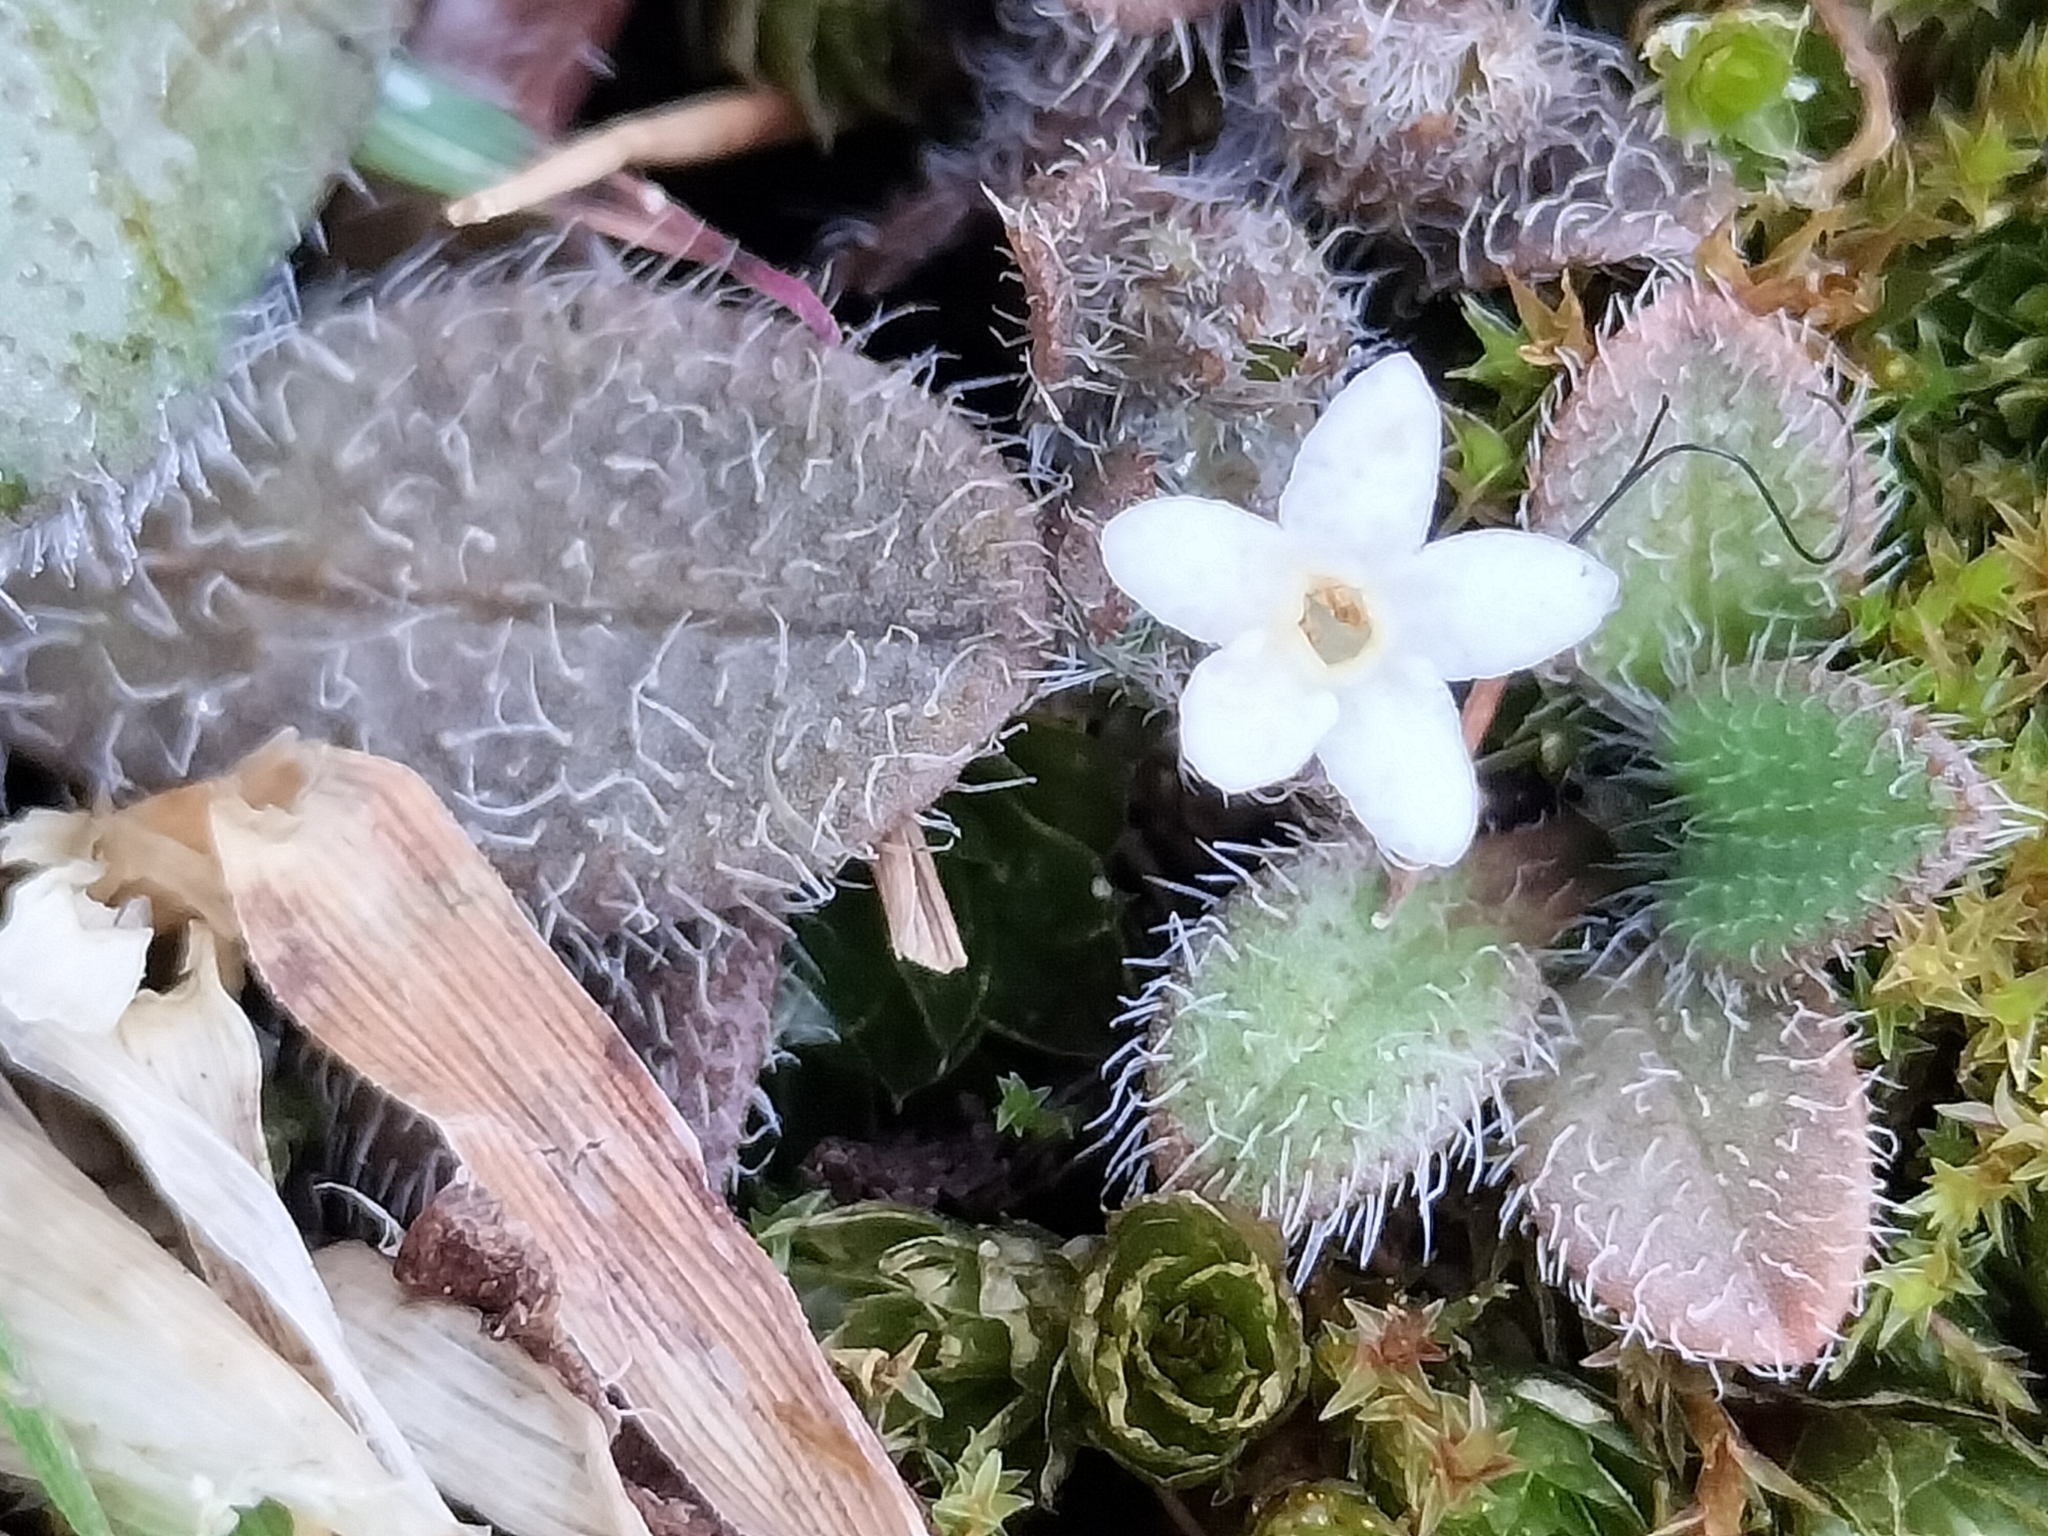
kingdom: Plantae
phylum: Tracheophyta
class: Magnoliopsida
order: Boraginales
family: Boraginaceae
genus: Myosotis
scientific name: Myosotis antarctica
